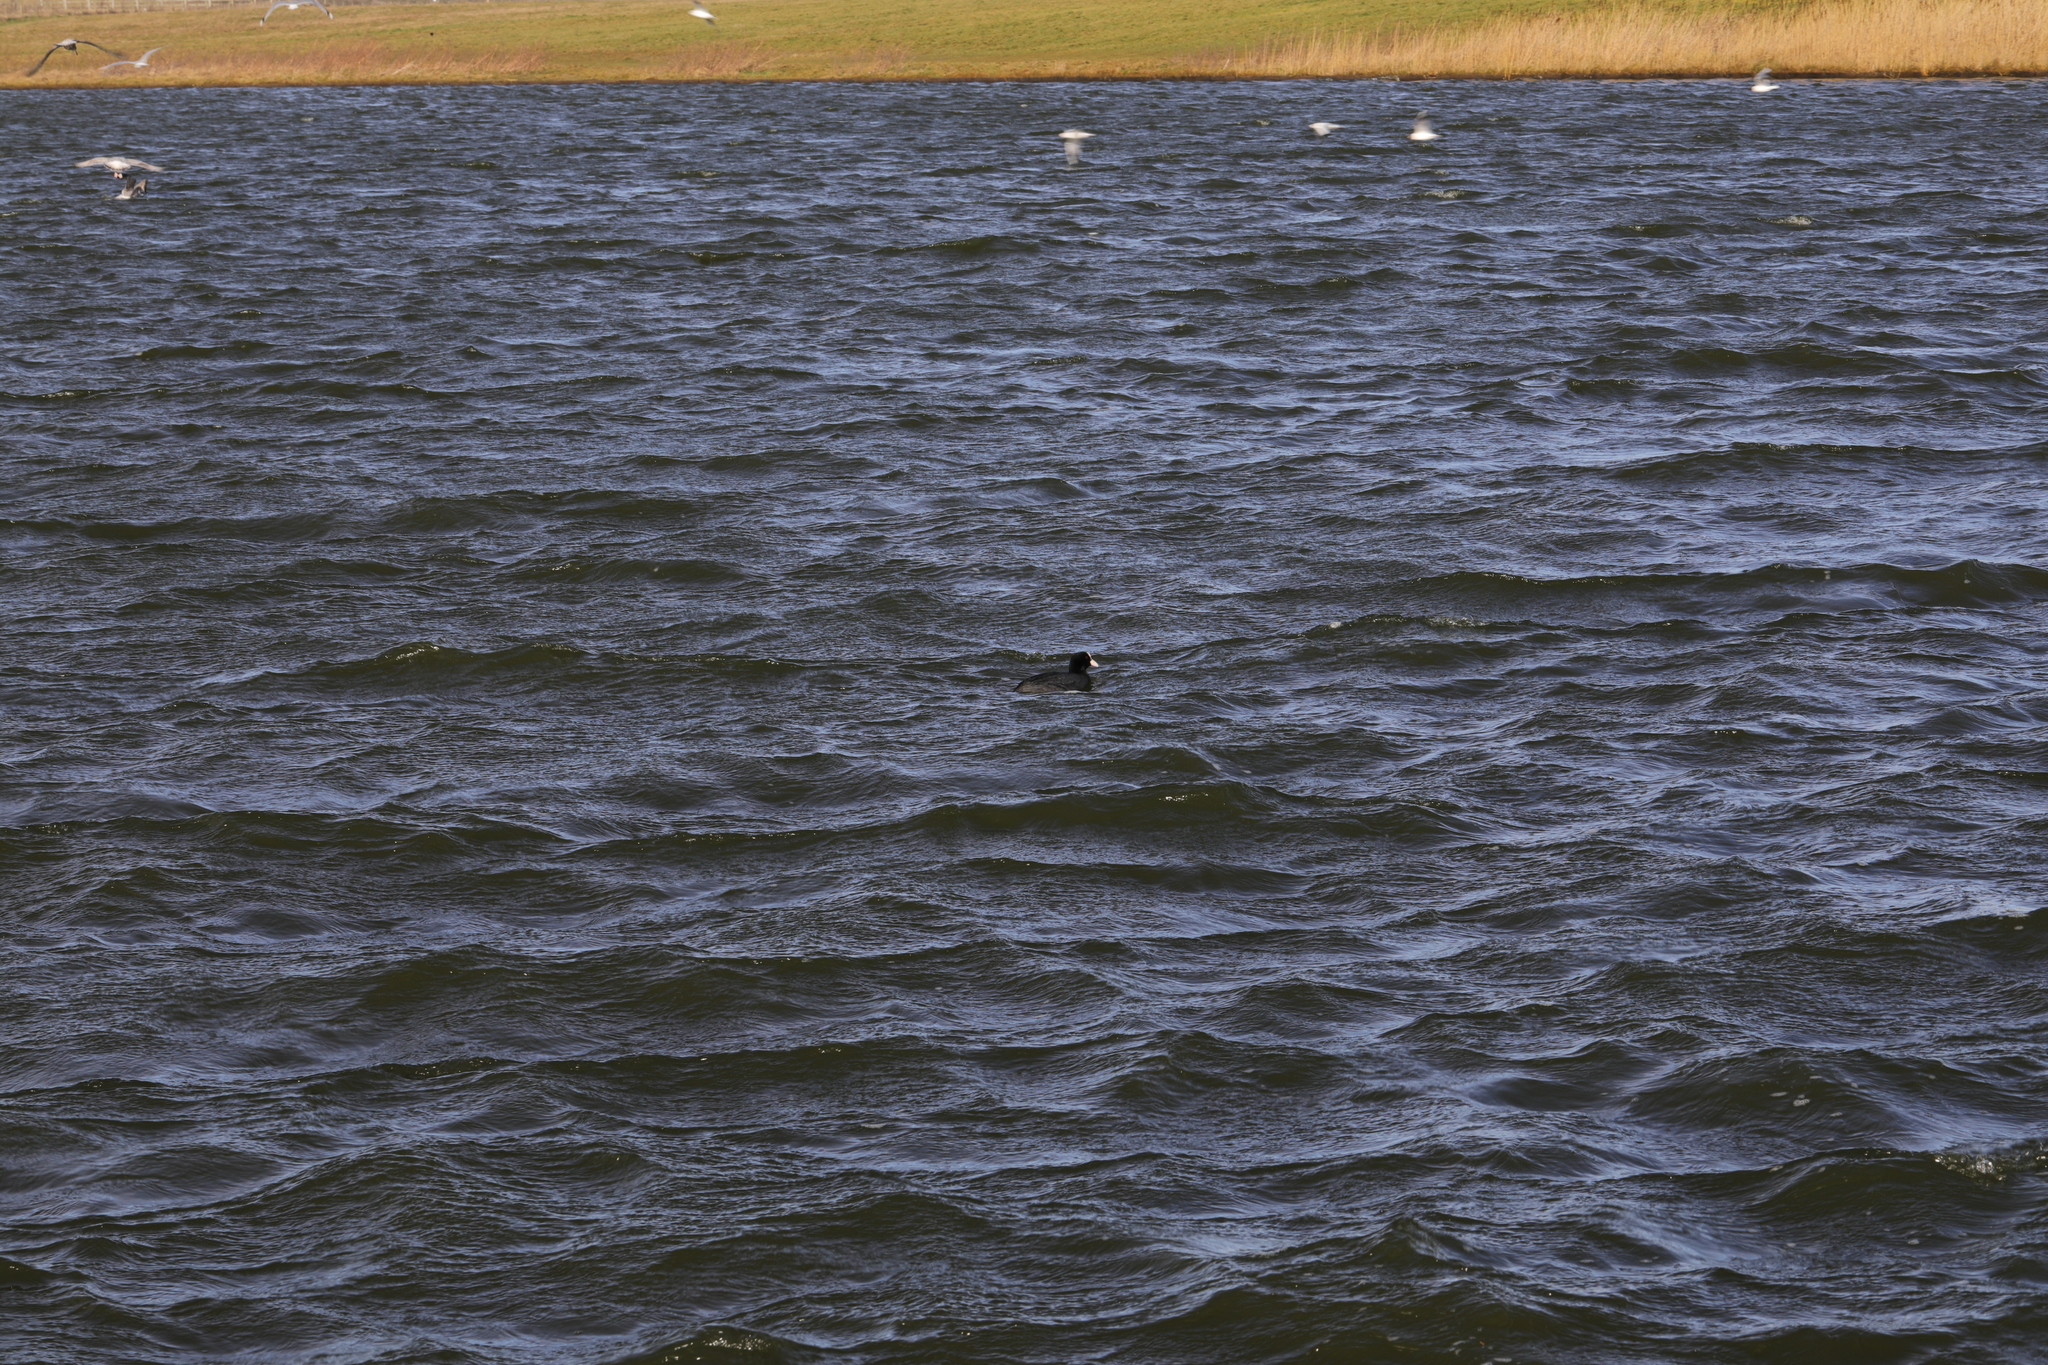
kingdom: Animalia
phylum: Chordata
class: Aves
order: Gruiformes
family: Rallidae
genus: Fulica
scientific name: Fulica atra
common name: Eurasian coot
